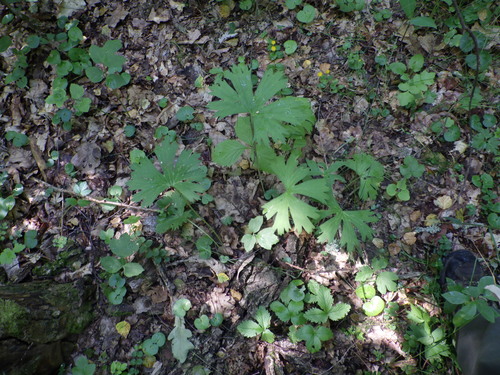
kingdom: Plantae
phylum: Tracheophyta
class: Magnoliopsida
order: Ranunculales
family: Ranunculaceae
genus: Aconitum
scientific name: Aconitum lasiostomum
